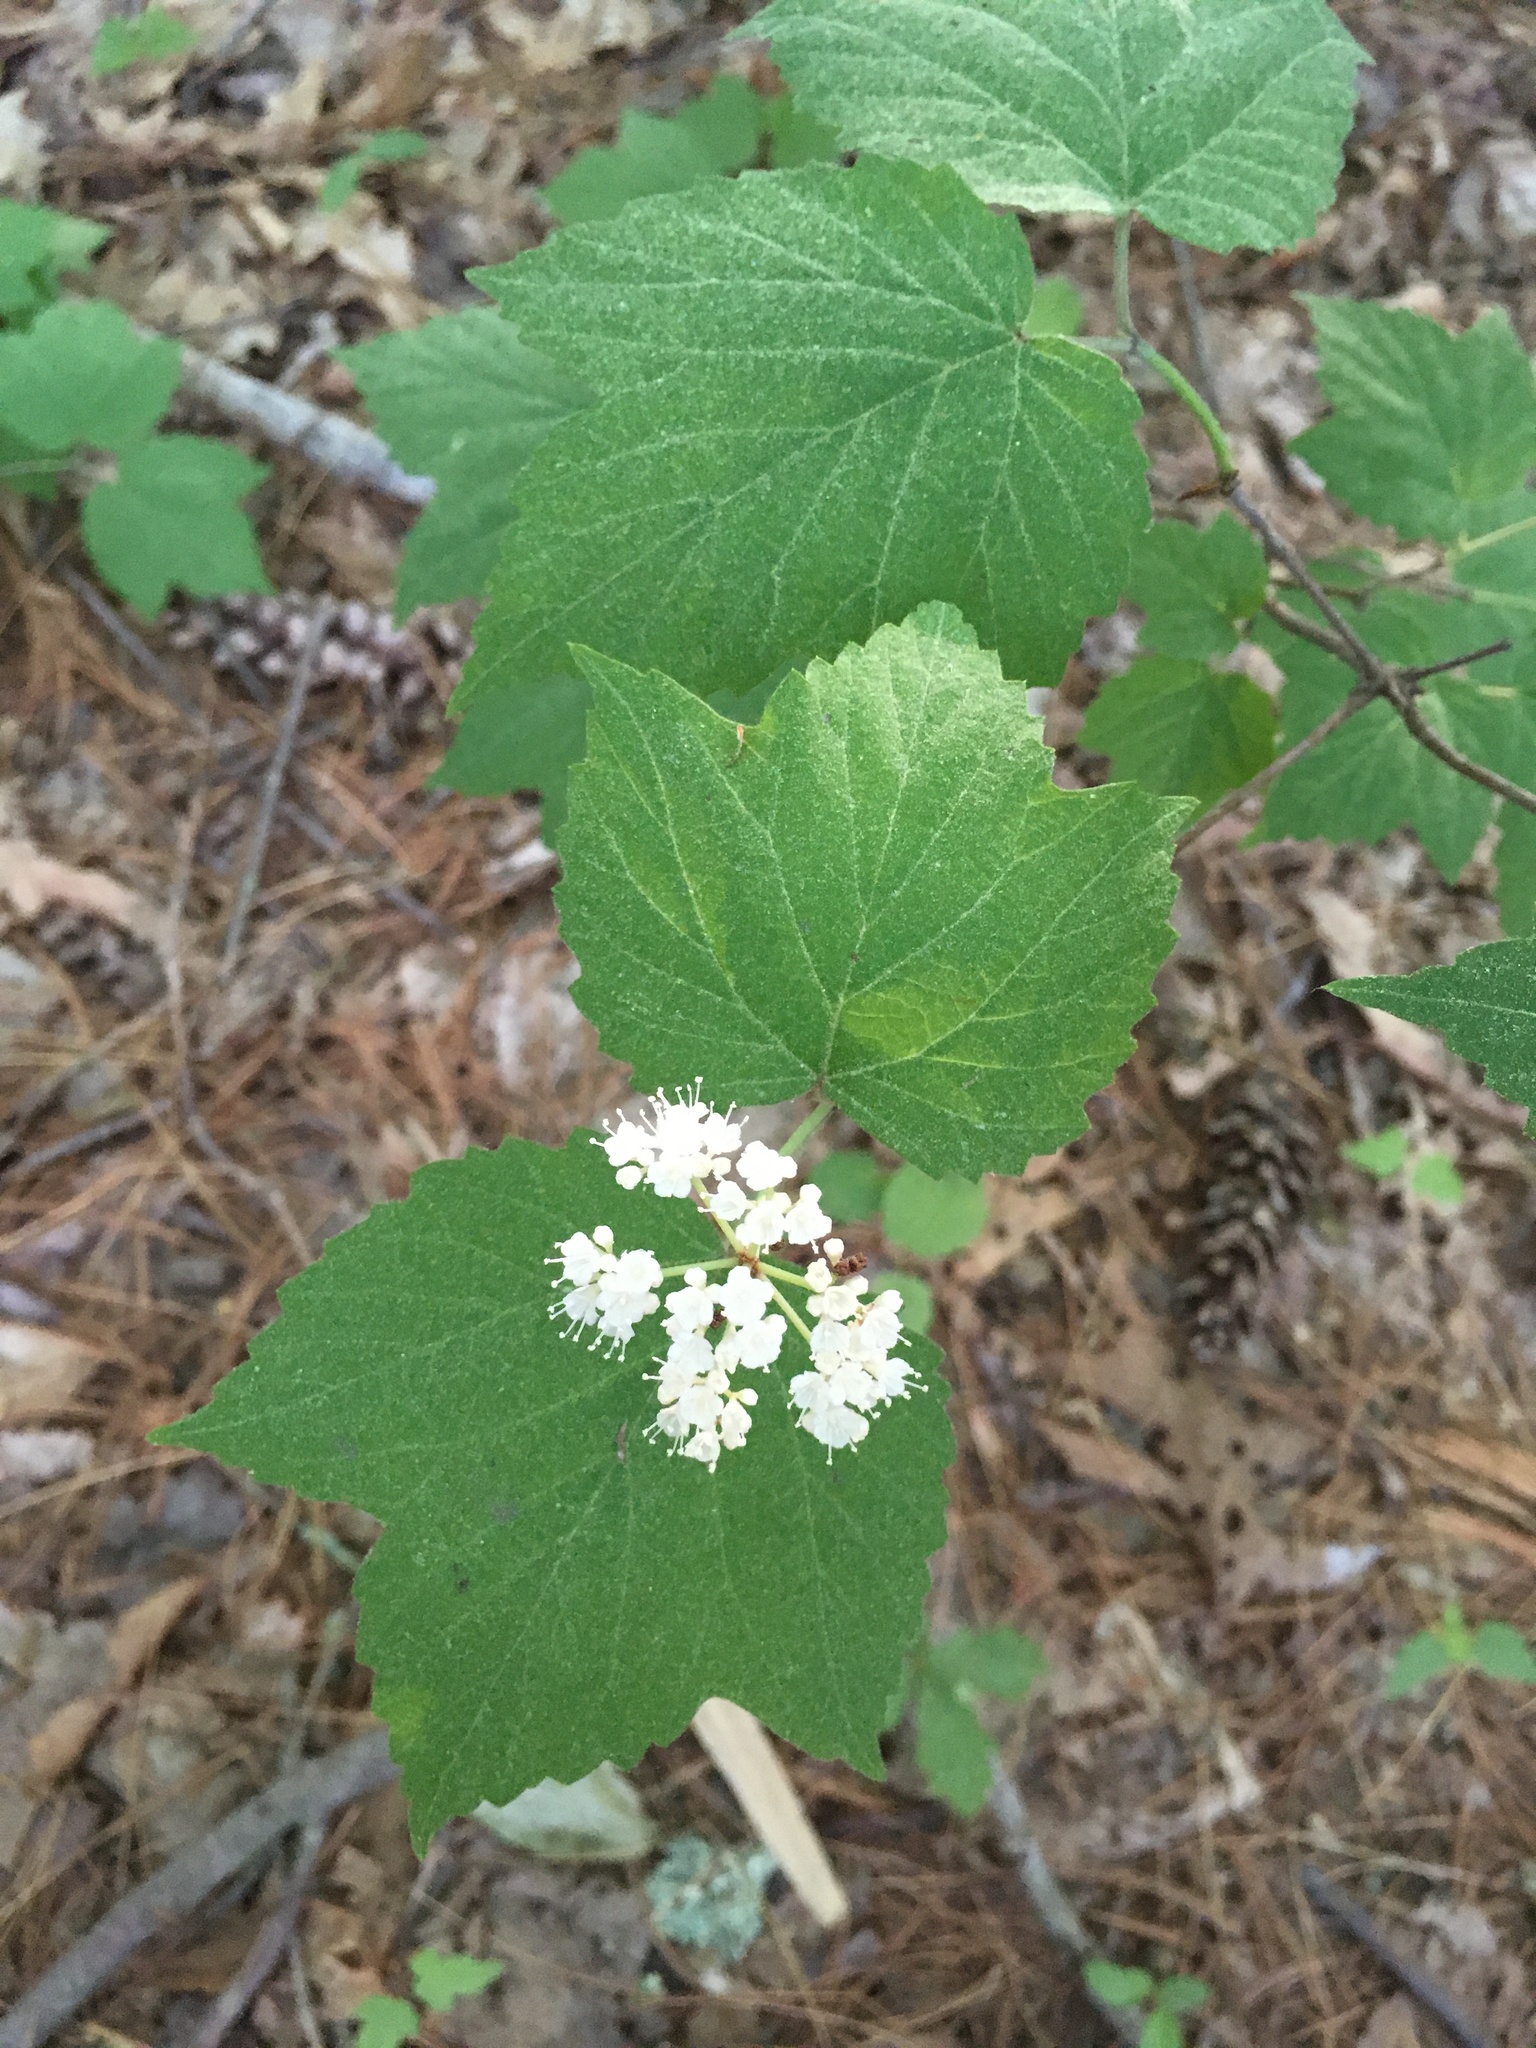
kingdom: Plantae
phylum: Tracheophyta
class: Magnoliopsida
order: Dipsacales
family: Viburnaceae
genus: Viburnum
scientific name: Viburnum acerifolium
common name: Dockmackie
